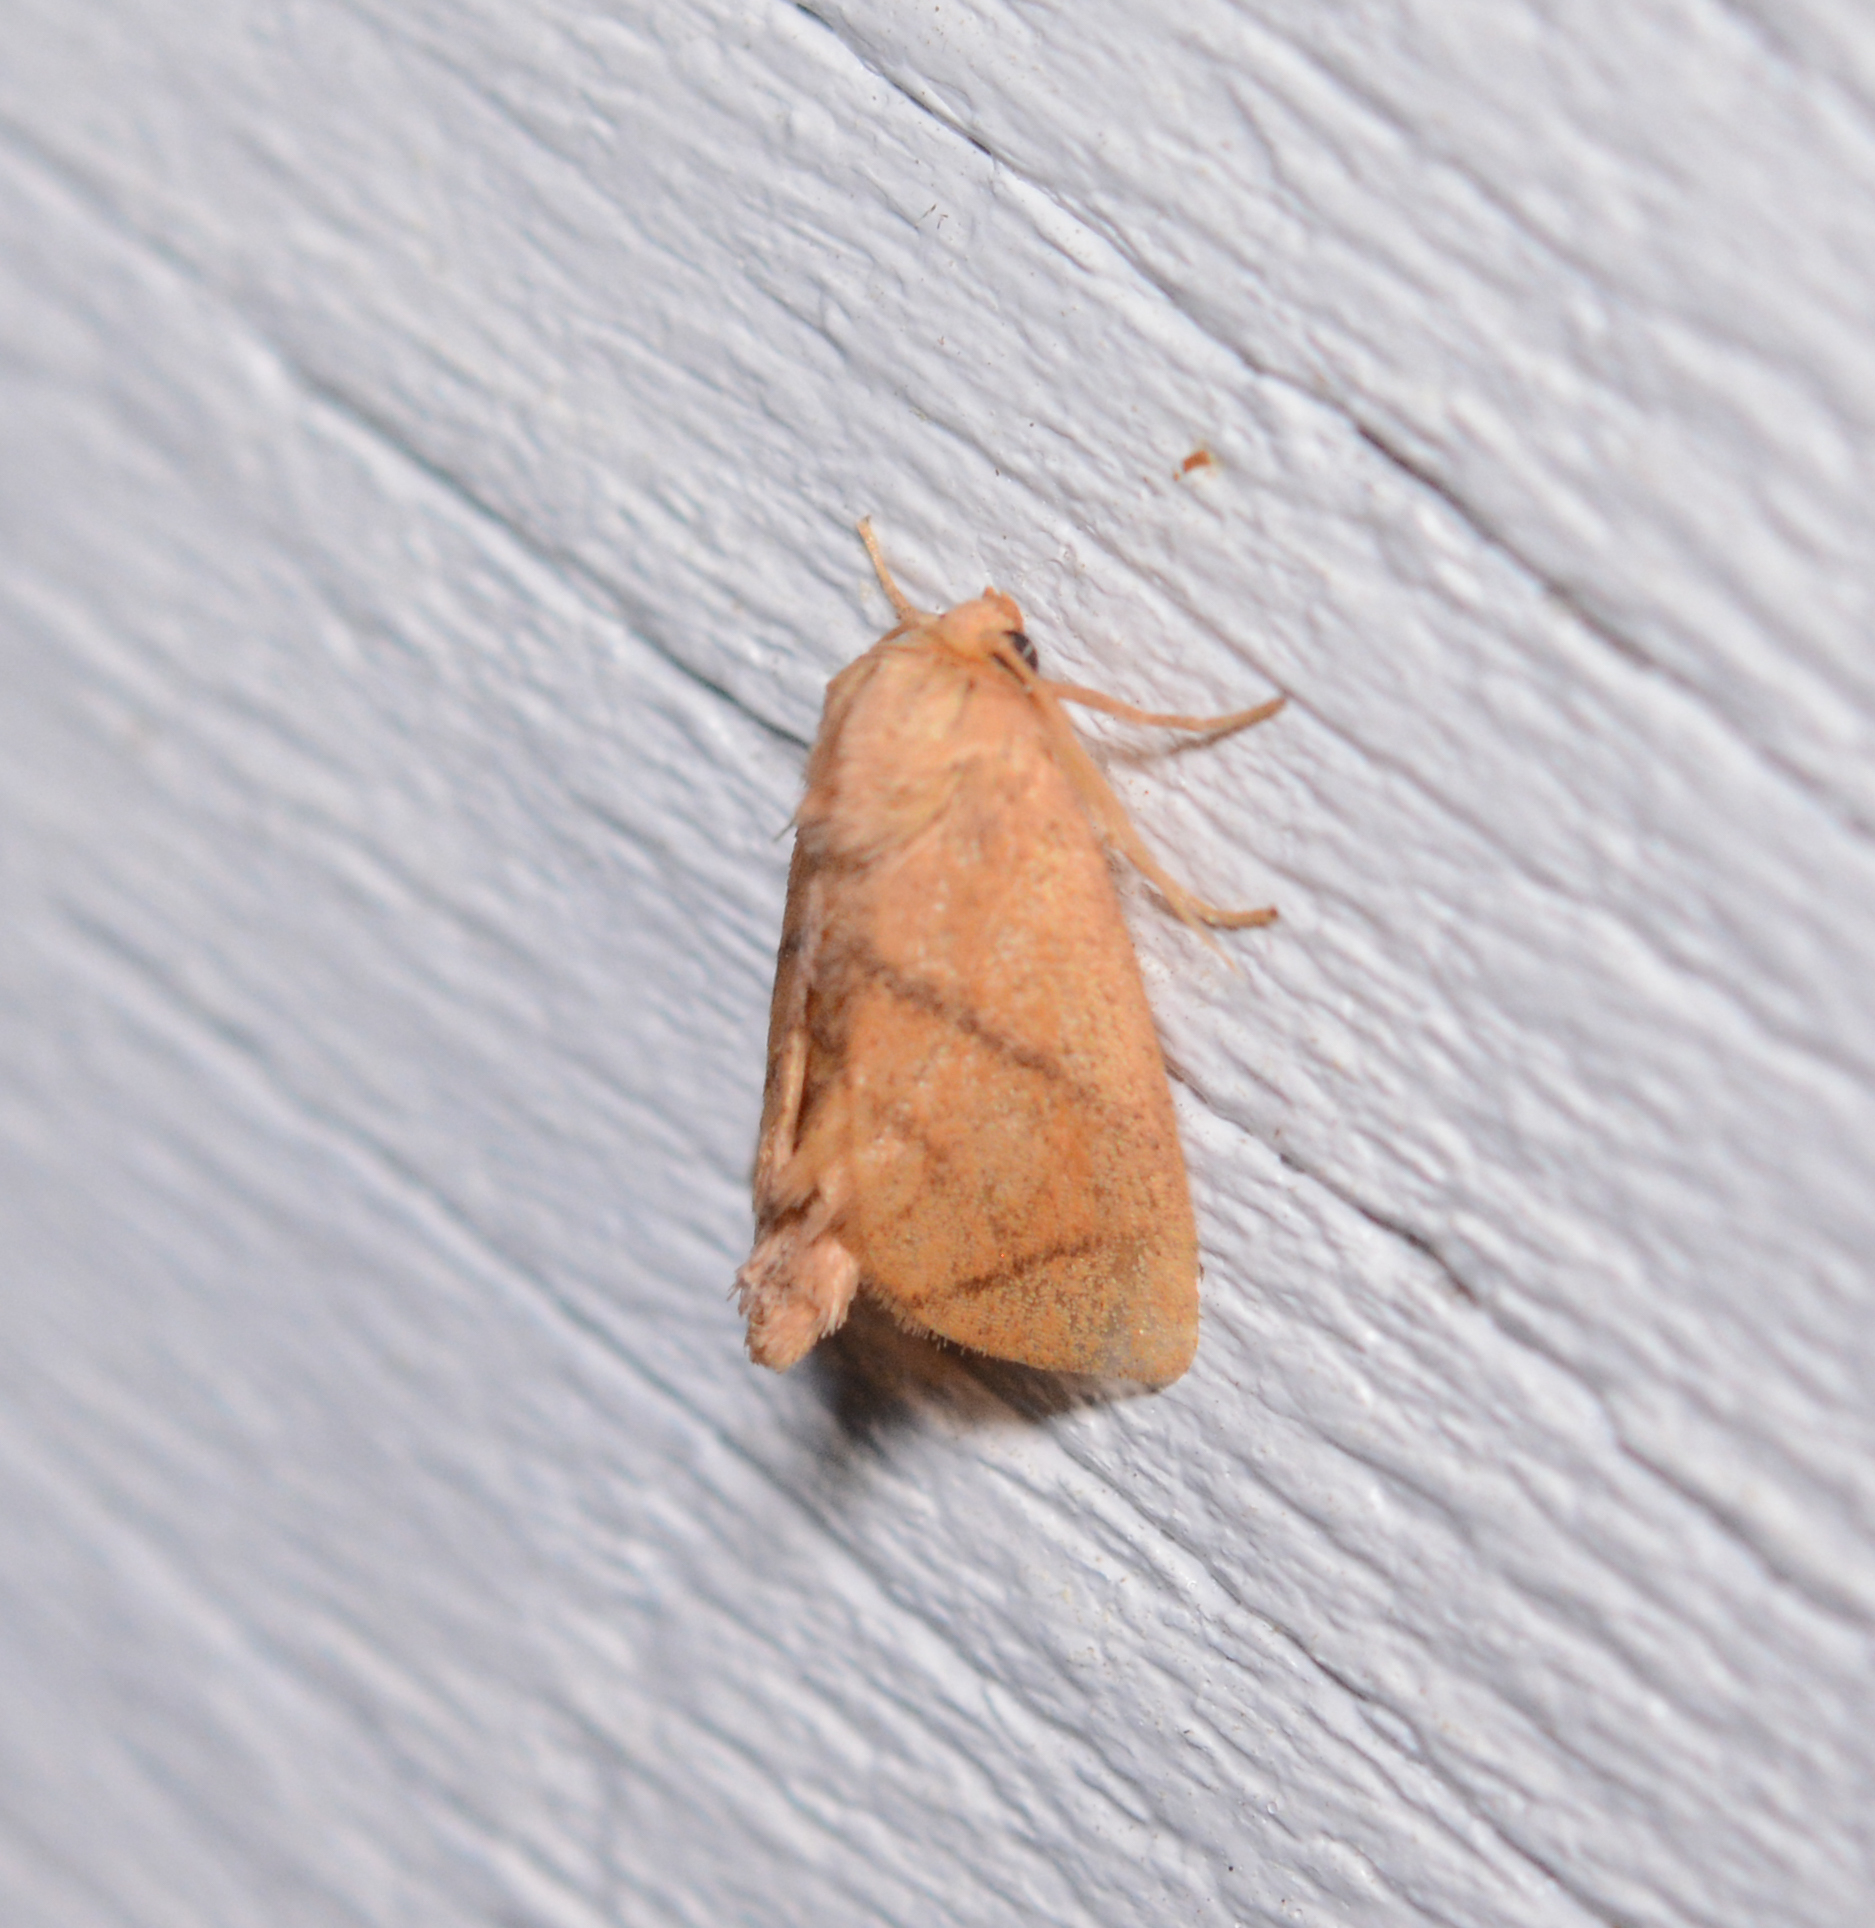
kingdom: Animalia
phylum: Arthropoda
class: Insecta
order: Lepidoptera
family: Limacodidae
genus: Apoda
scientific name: Apoda y-inversa
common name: Yellow-collared slug moth
